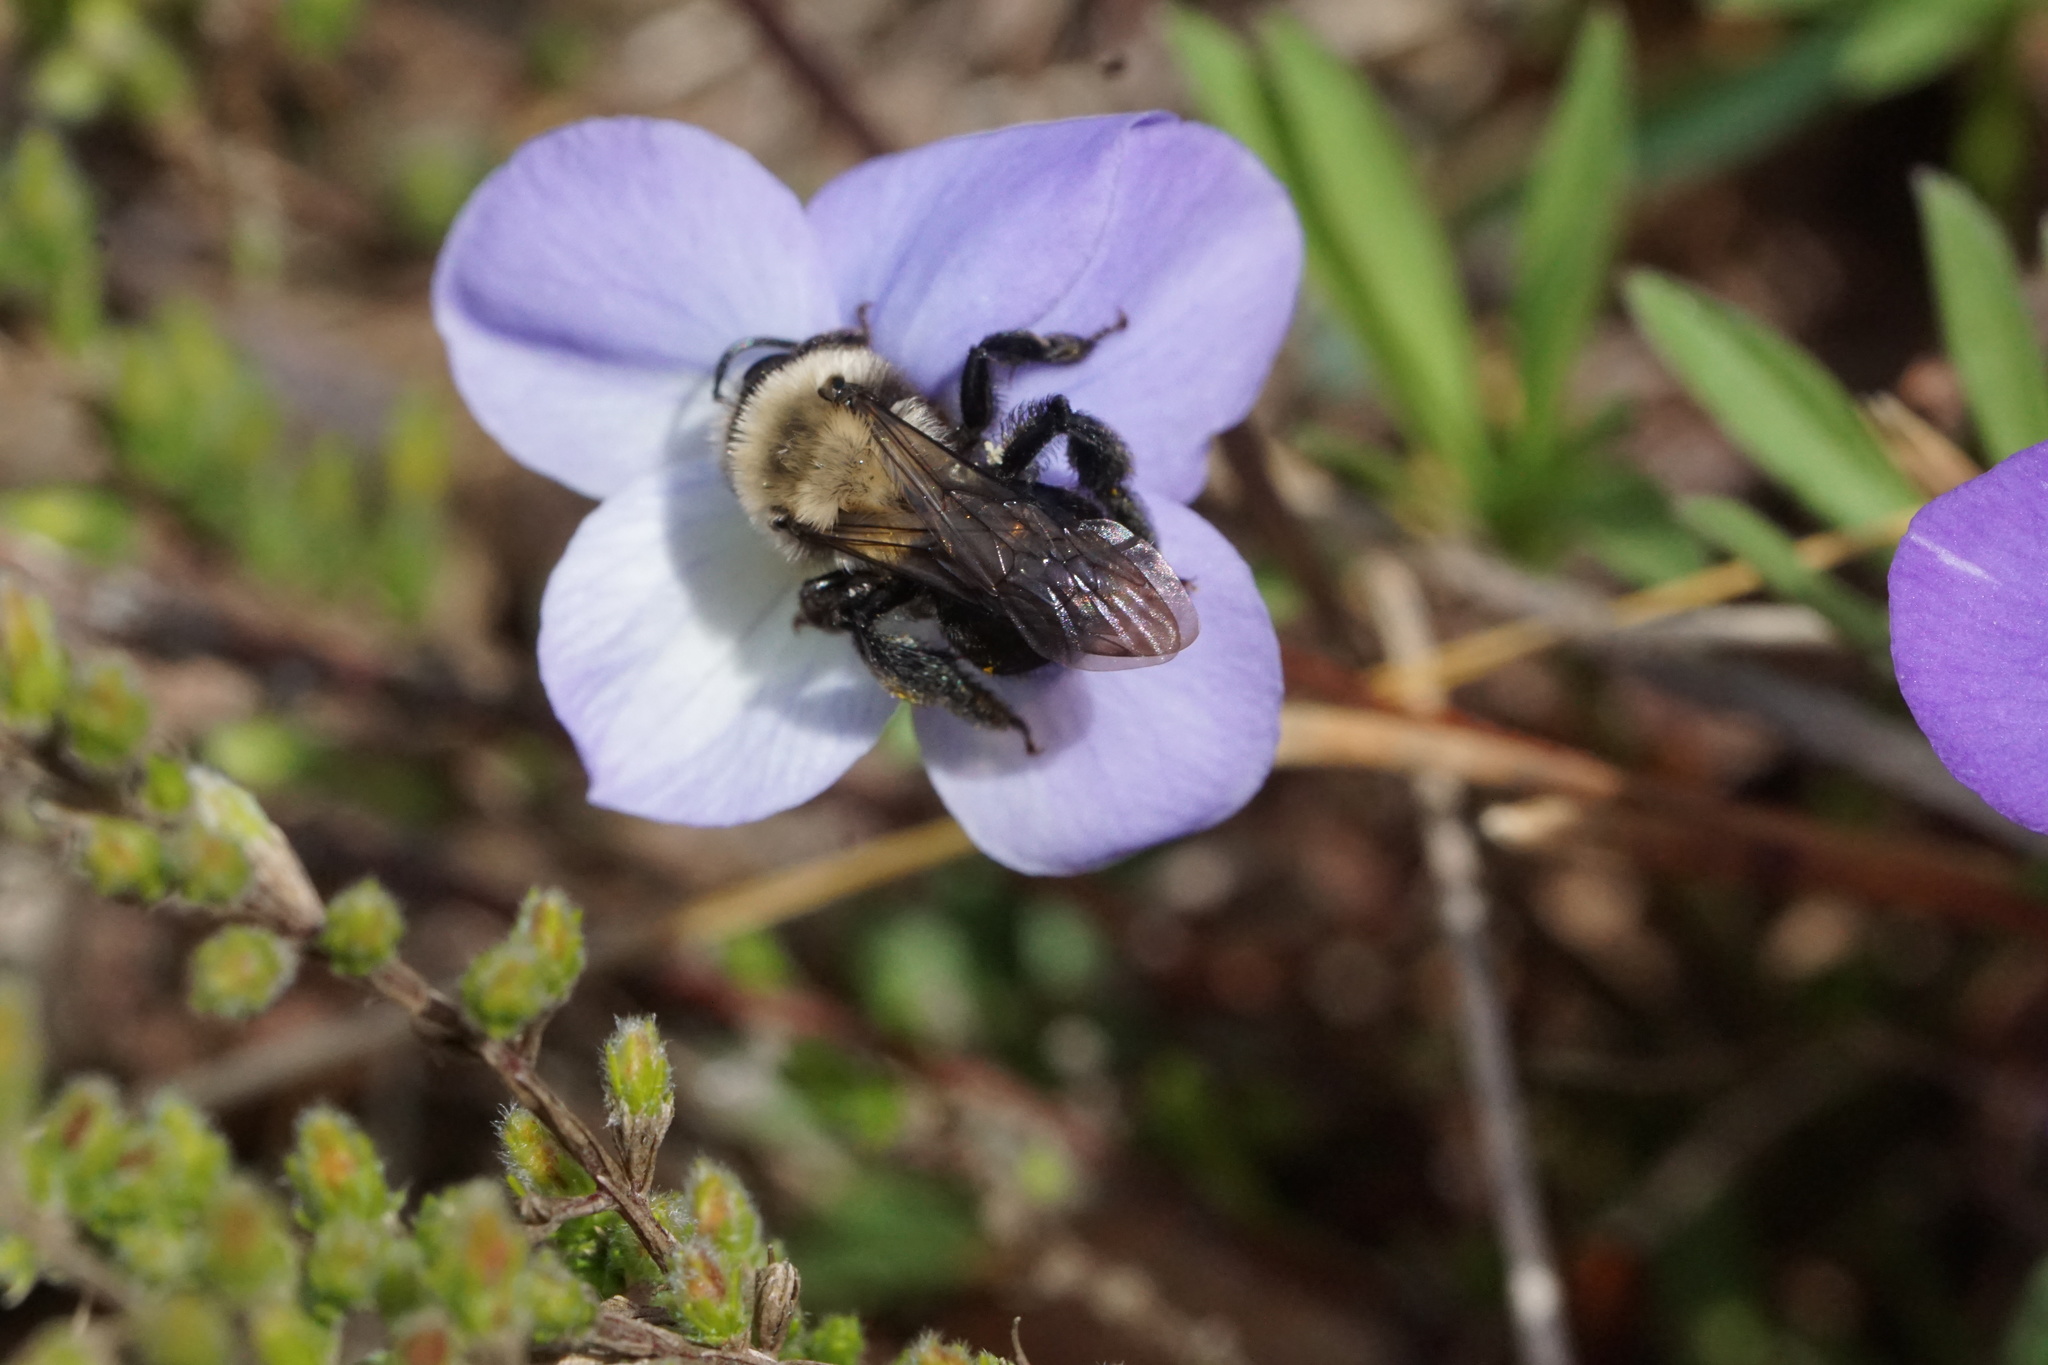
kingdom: Animalia
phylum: Arthropoda
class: Insecta
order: Hymenoptera
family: Andrenidae
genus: Andrena
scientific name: Andrena carlini
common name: Carlin's mining bee
